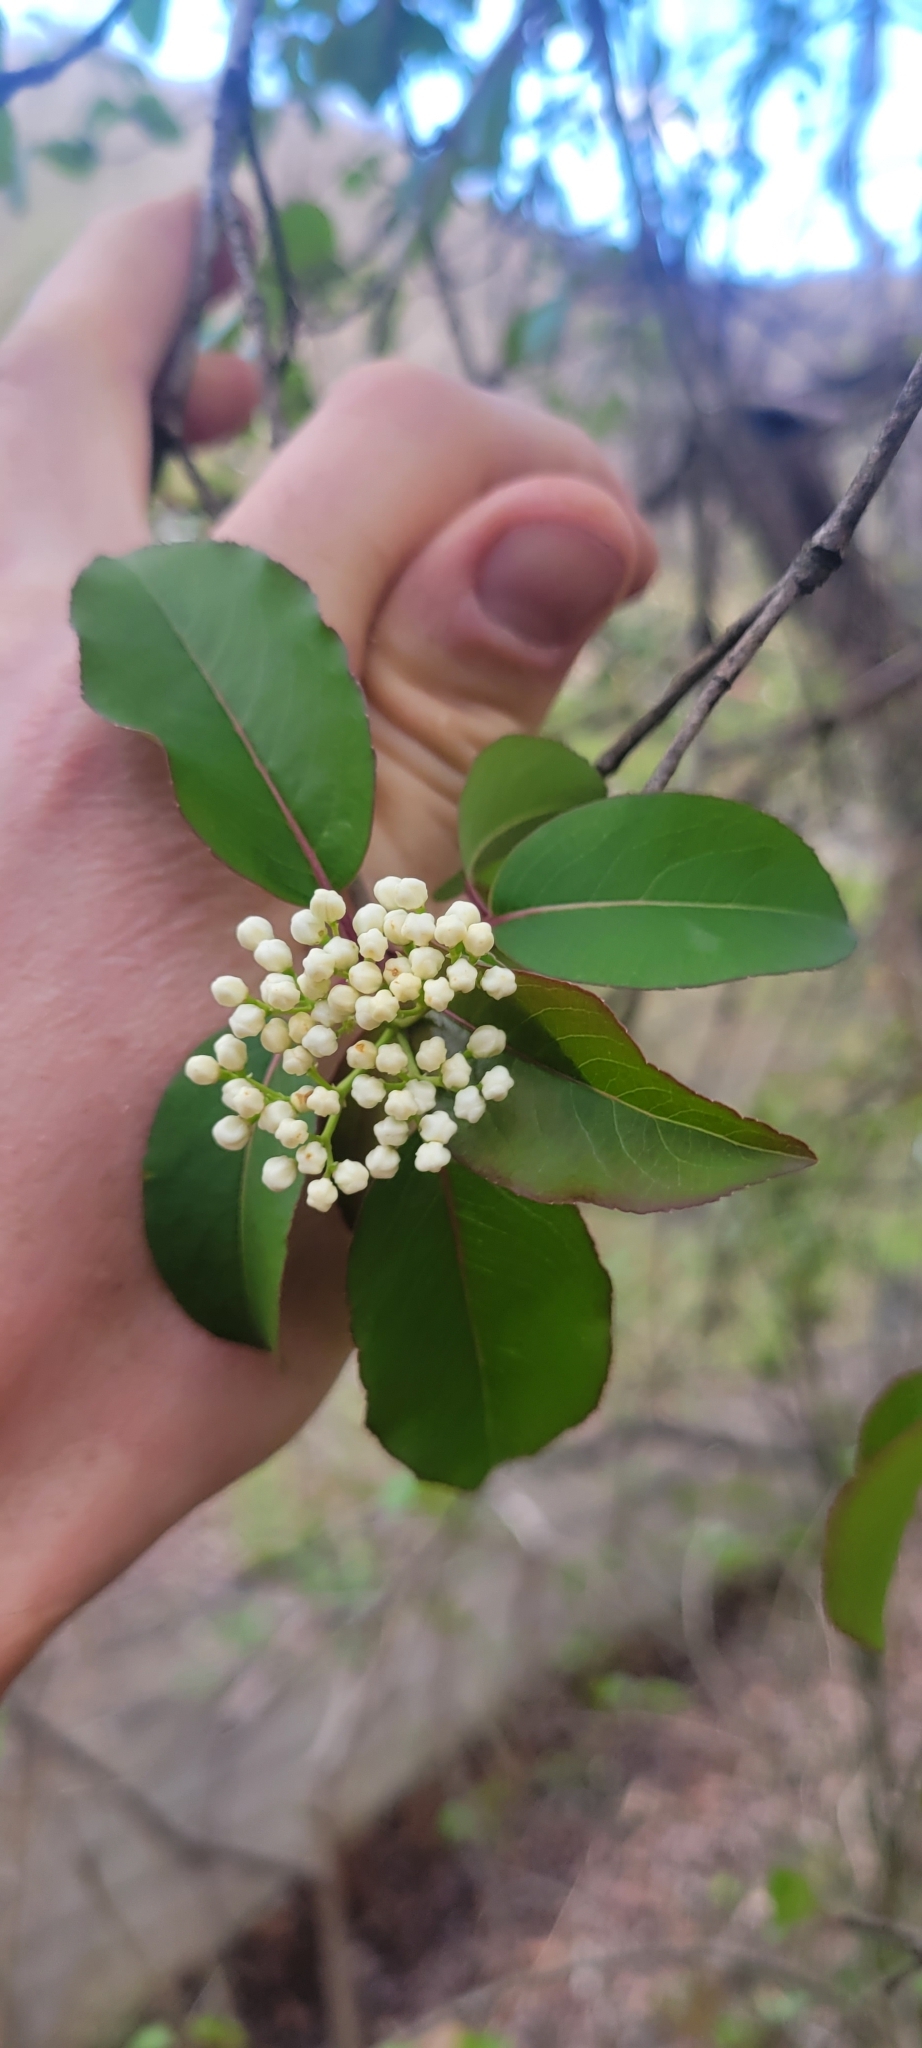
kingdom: Plantae
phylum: Tracheophyta
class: Magnoliopsida
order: Dipsacales
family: Viburnaceae
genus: Viburnum
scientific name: Viburnum prunifolium
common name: Black haw
